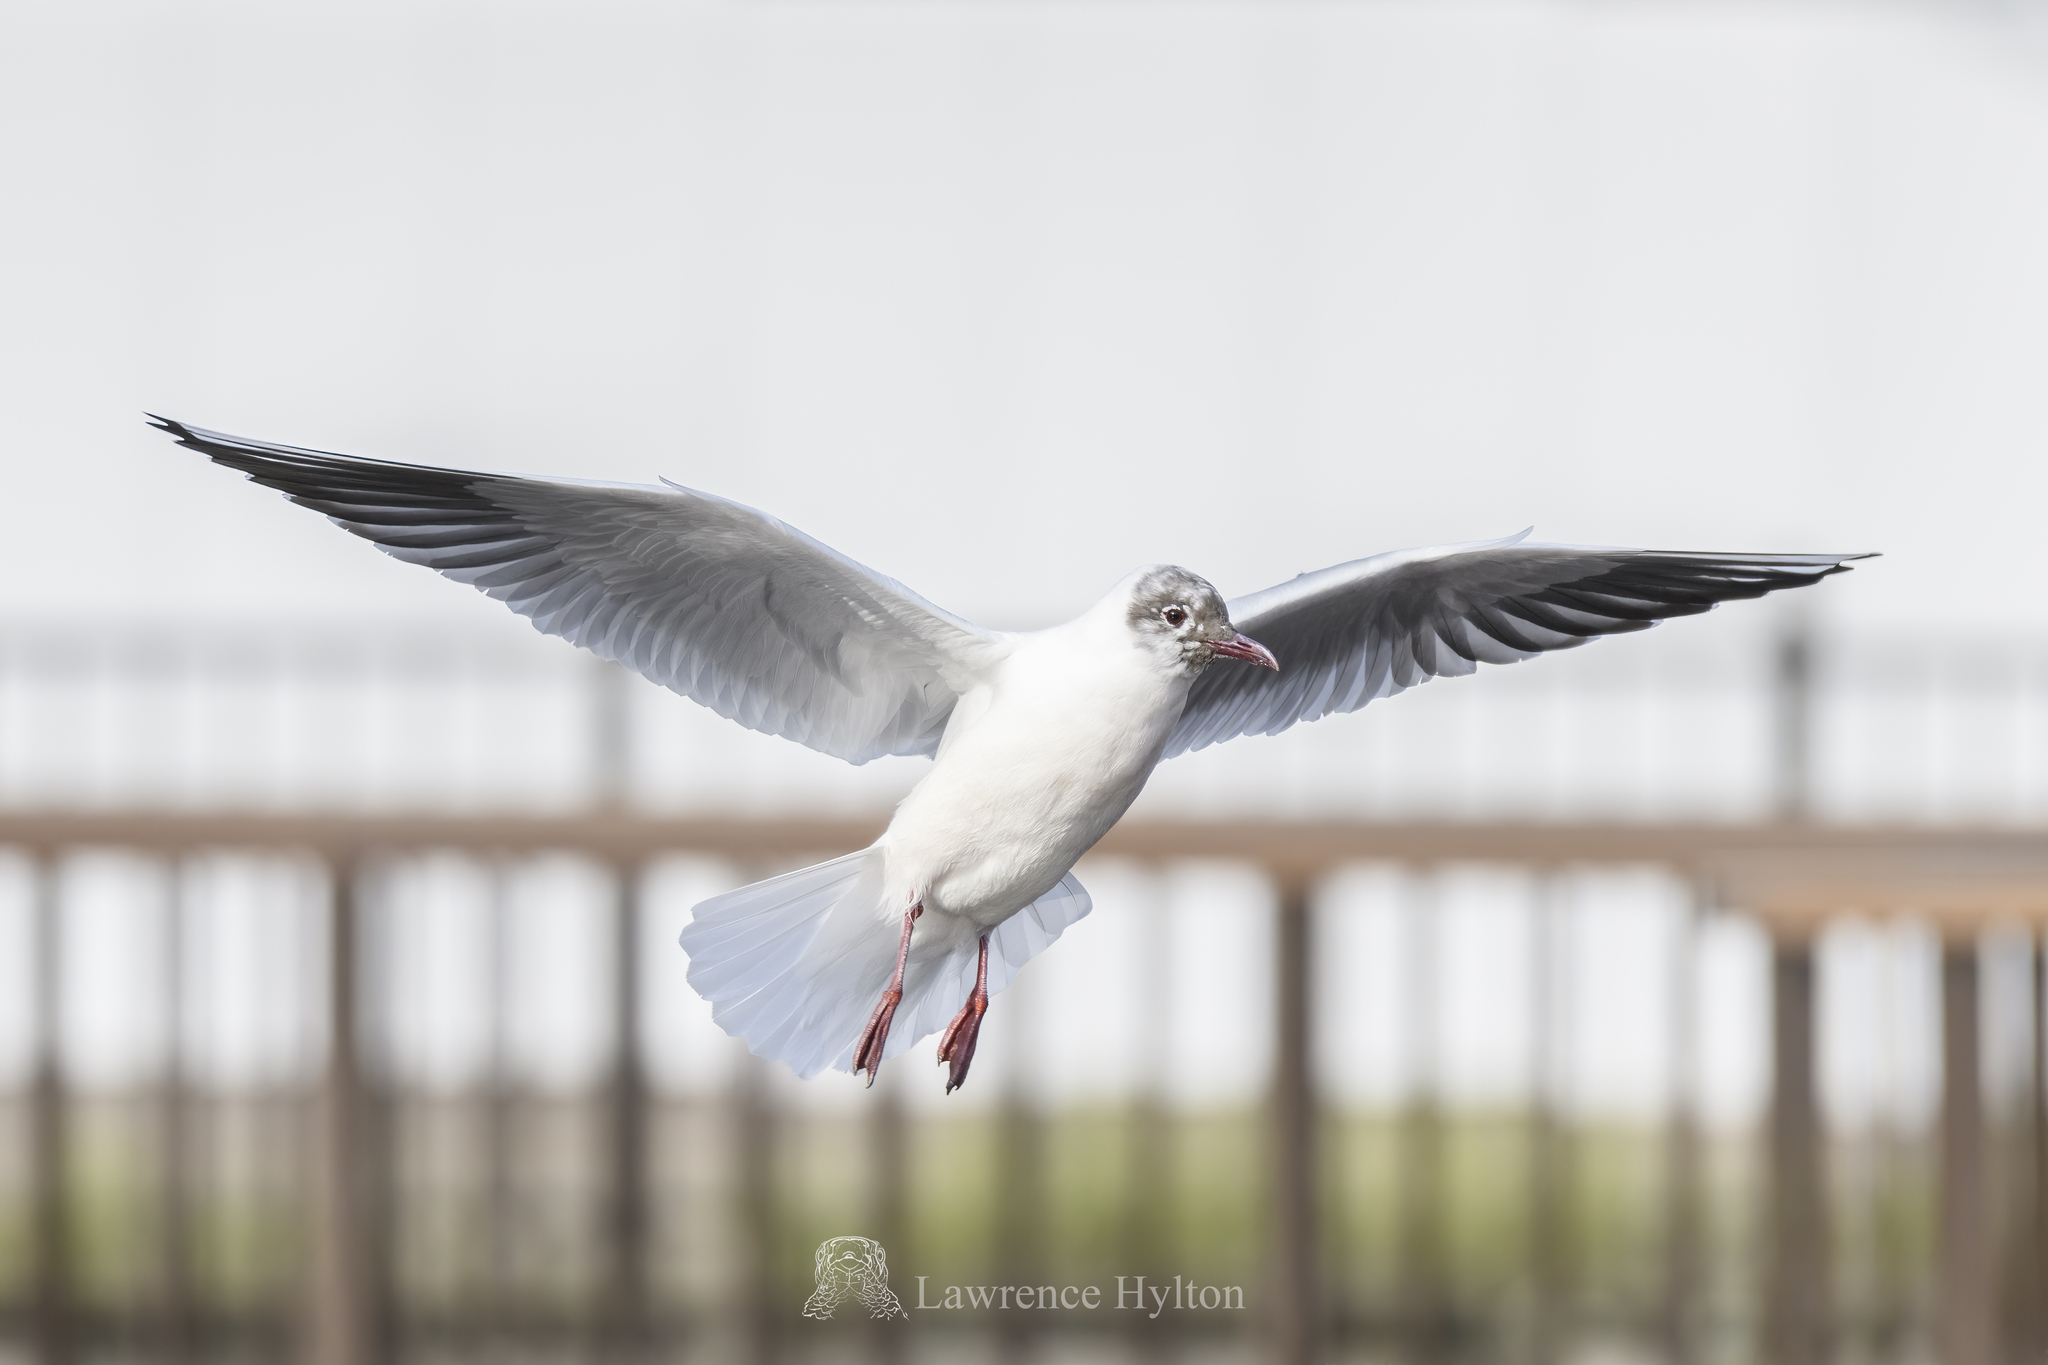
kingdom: Animalia
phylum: Chordata
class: Aves
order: Charadriiformes
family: Laridae
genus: Chroicocephalus
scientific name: Chroicocephalus ridibundus
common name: Black-headed gull
